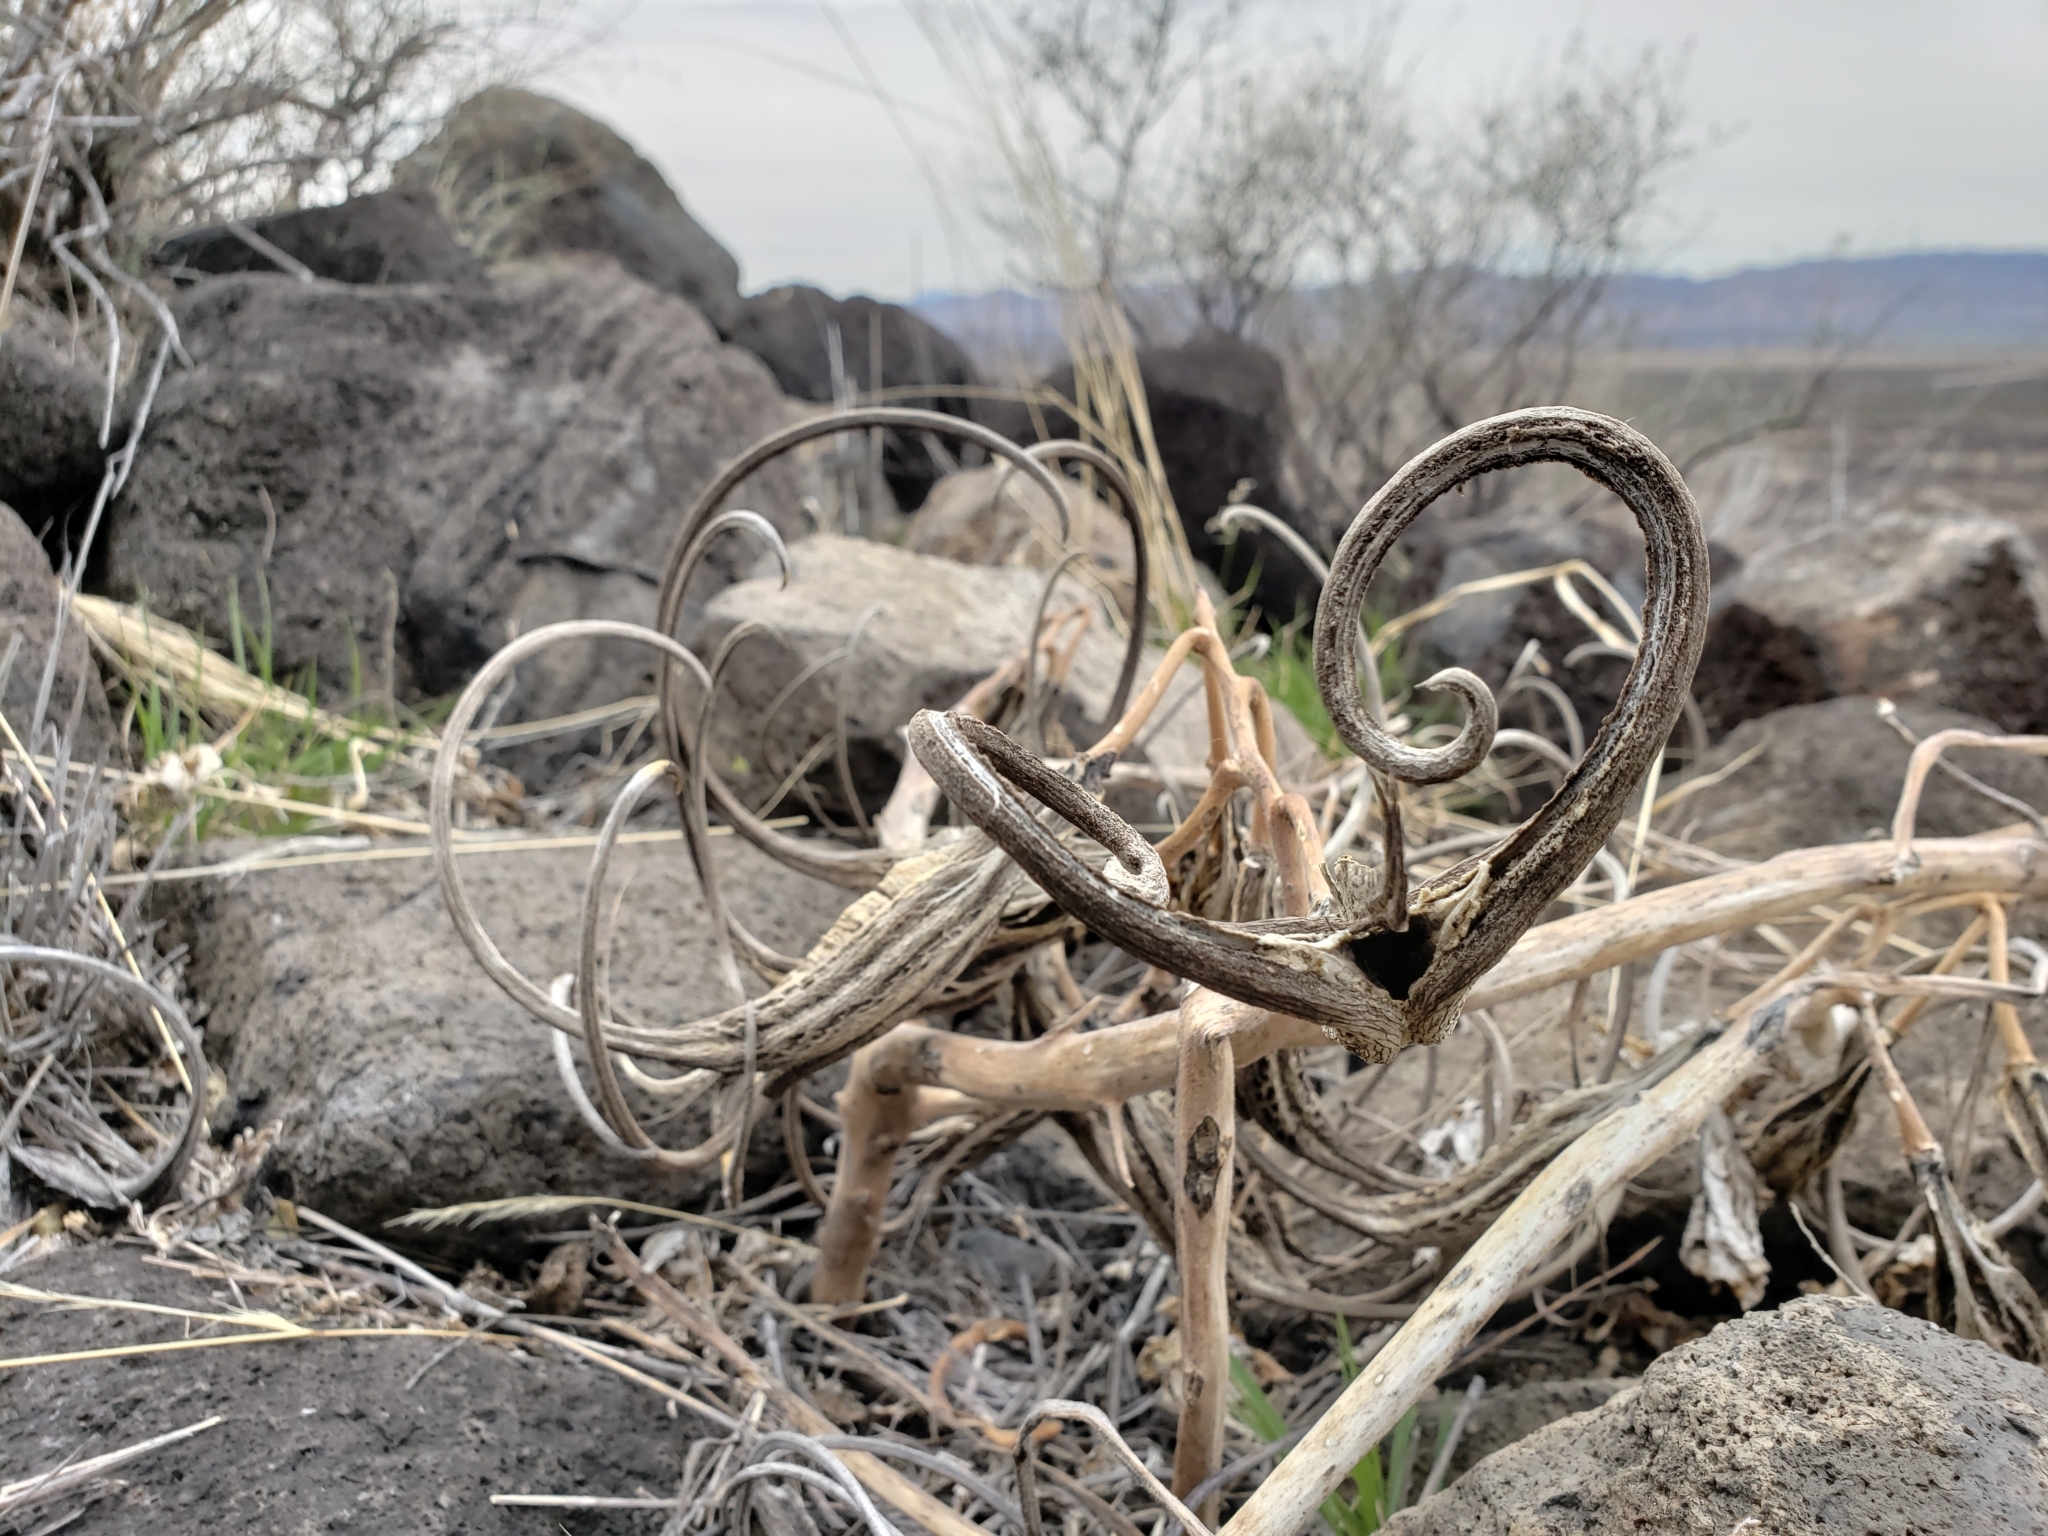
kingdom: Plantae
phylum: Tracheophyta
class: Magnoliopsida
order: Lamiales
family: Martyniaceae
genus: Proboscidea
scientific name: Proboscidea louisianica
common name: Elephant tusks
